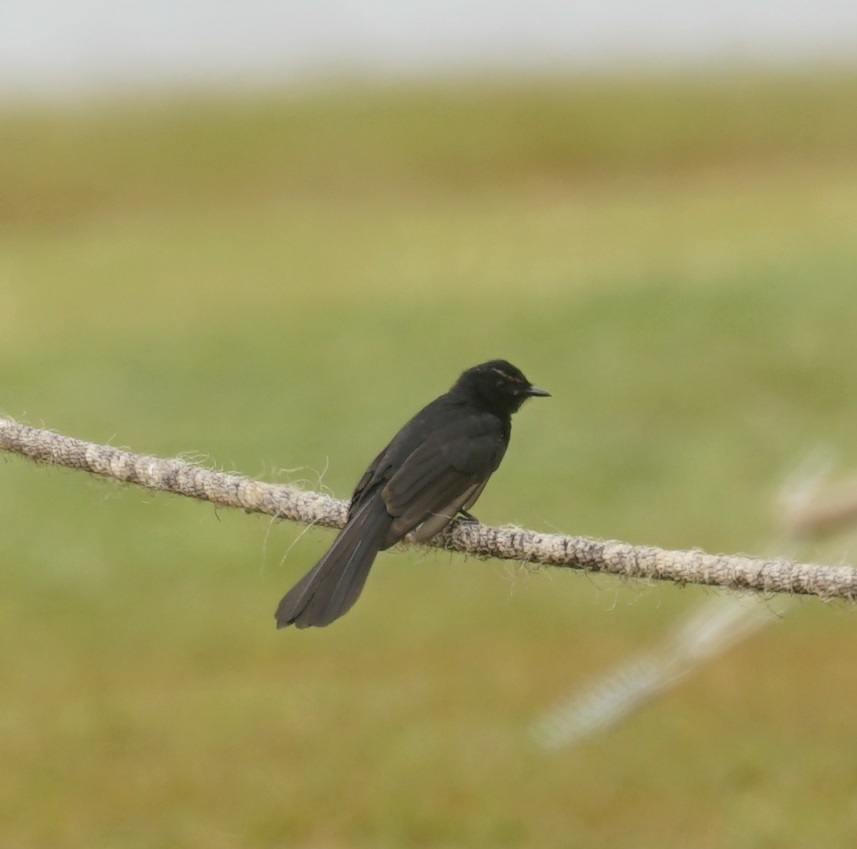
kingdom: Animalia
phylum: Chordata
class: Aves
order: Passeriformes
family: Rhipiduridae
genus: Rhipidura
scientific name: Rhipidura leucophrys
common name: Willie wagtail
